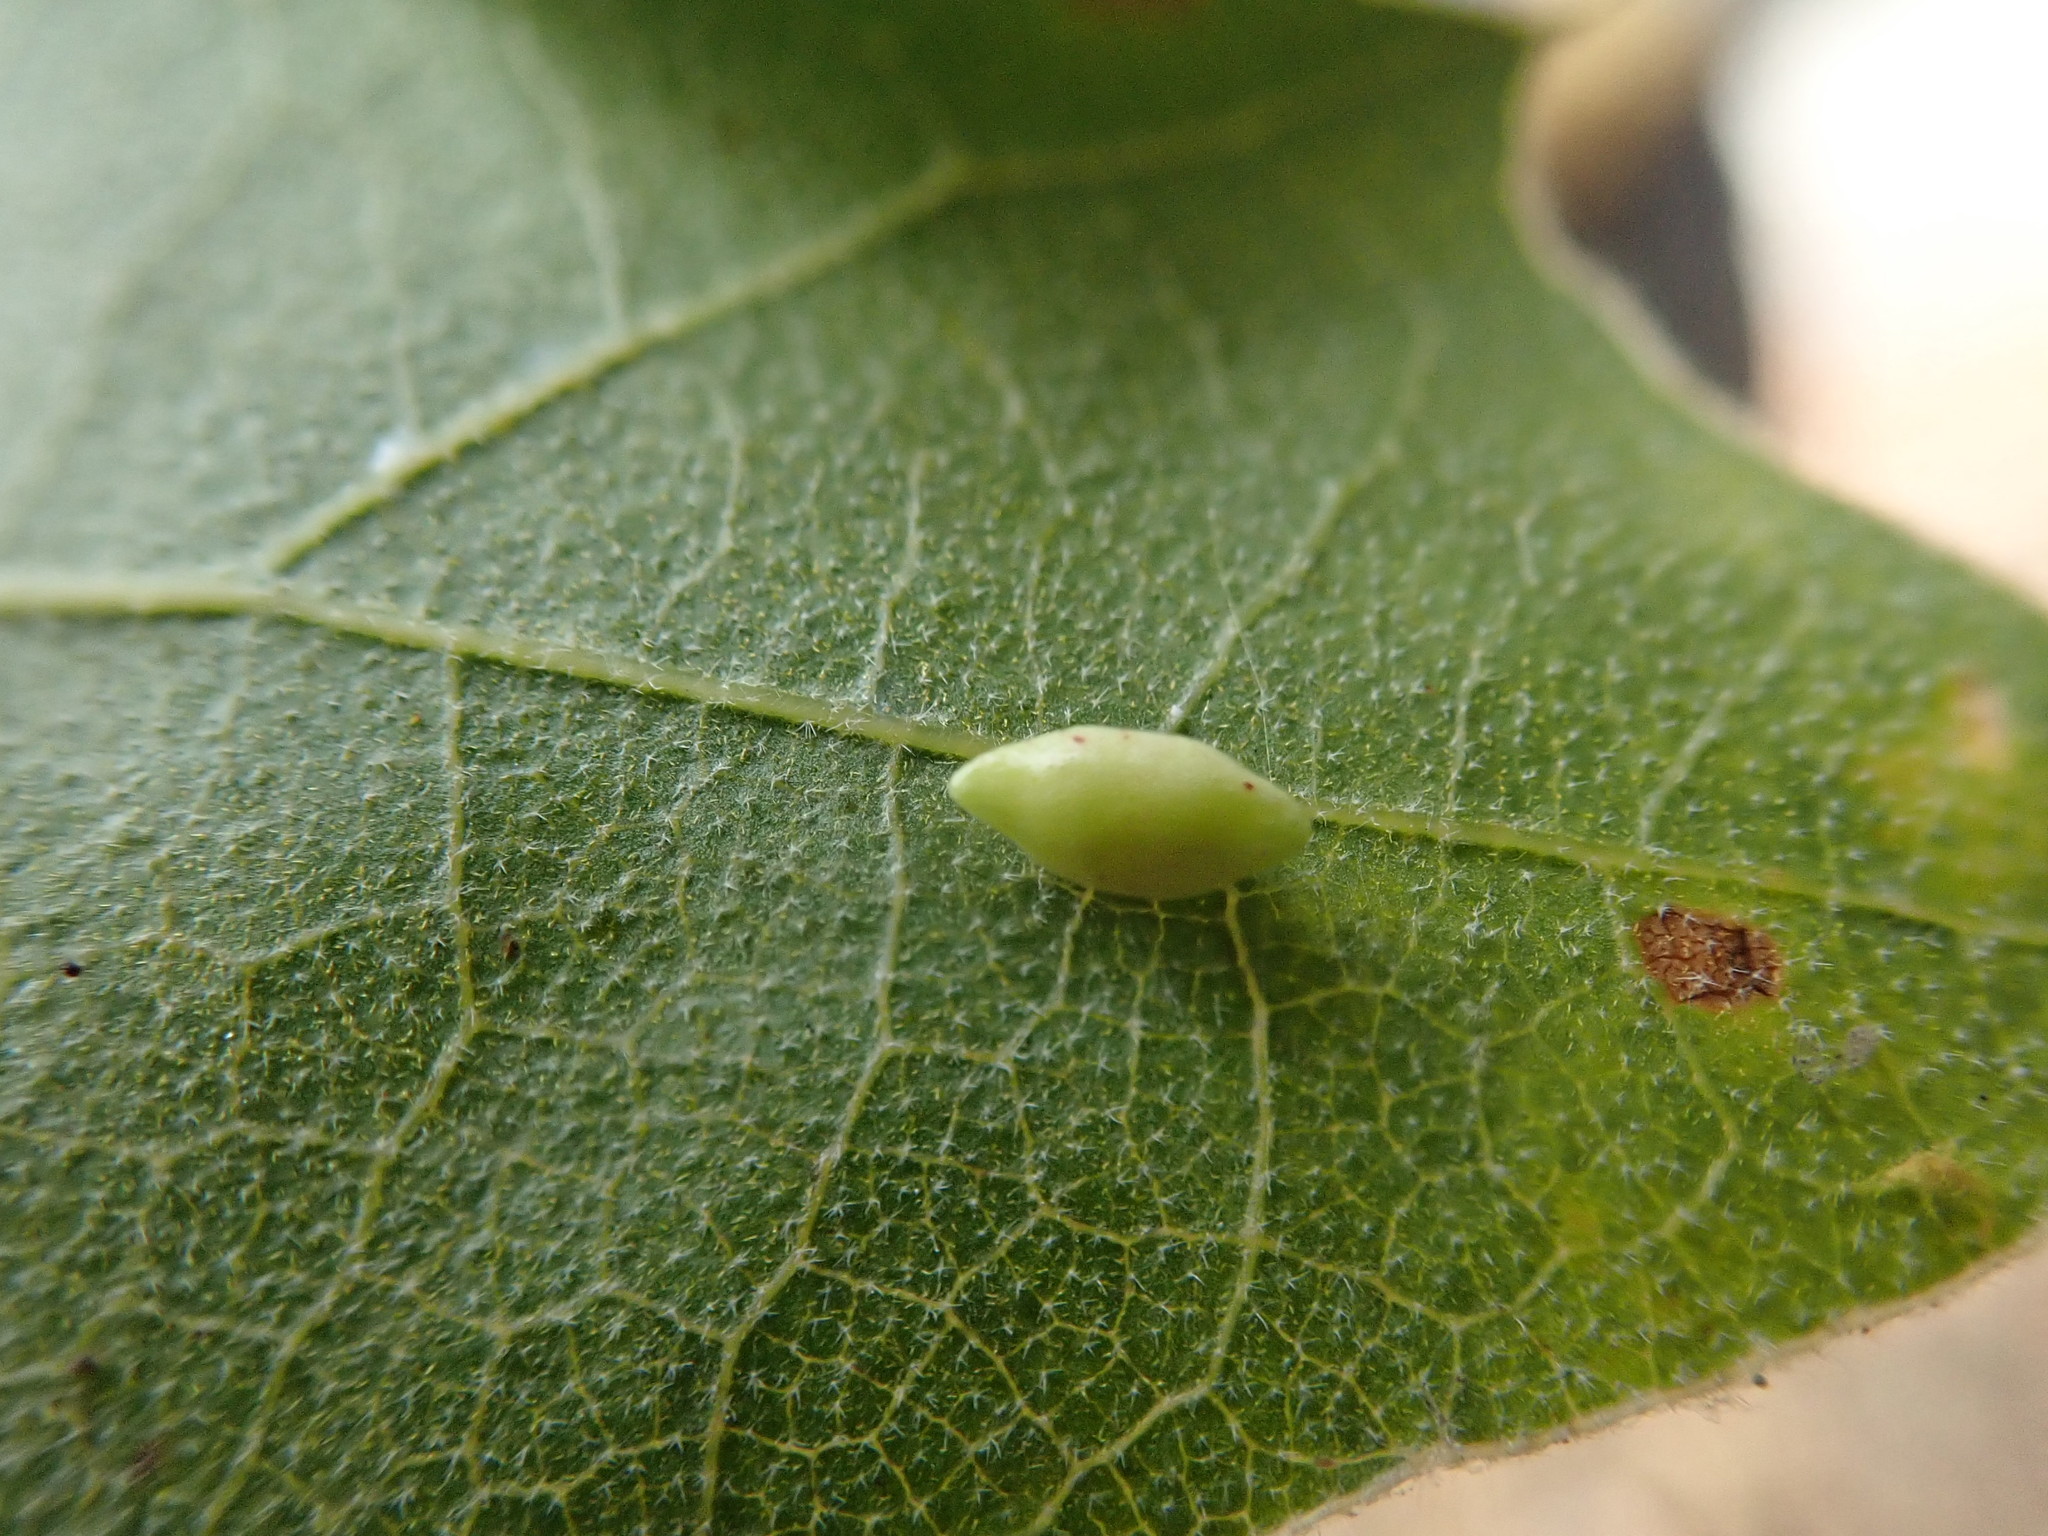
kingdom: Animalia
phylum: Arthropoda
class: Insecta
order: Hymenoptera
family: Cynipidae
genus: Dryocosmus
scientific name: Dryocosmus
